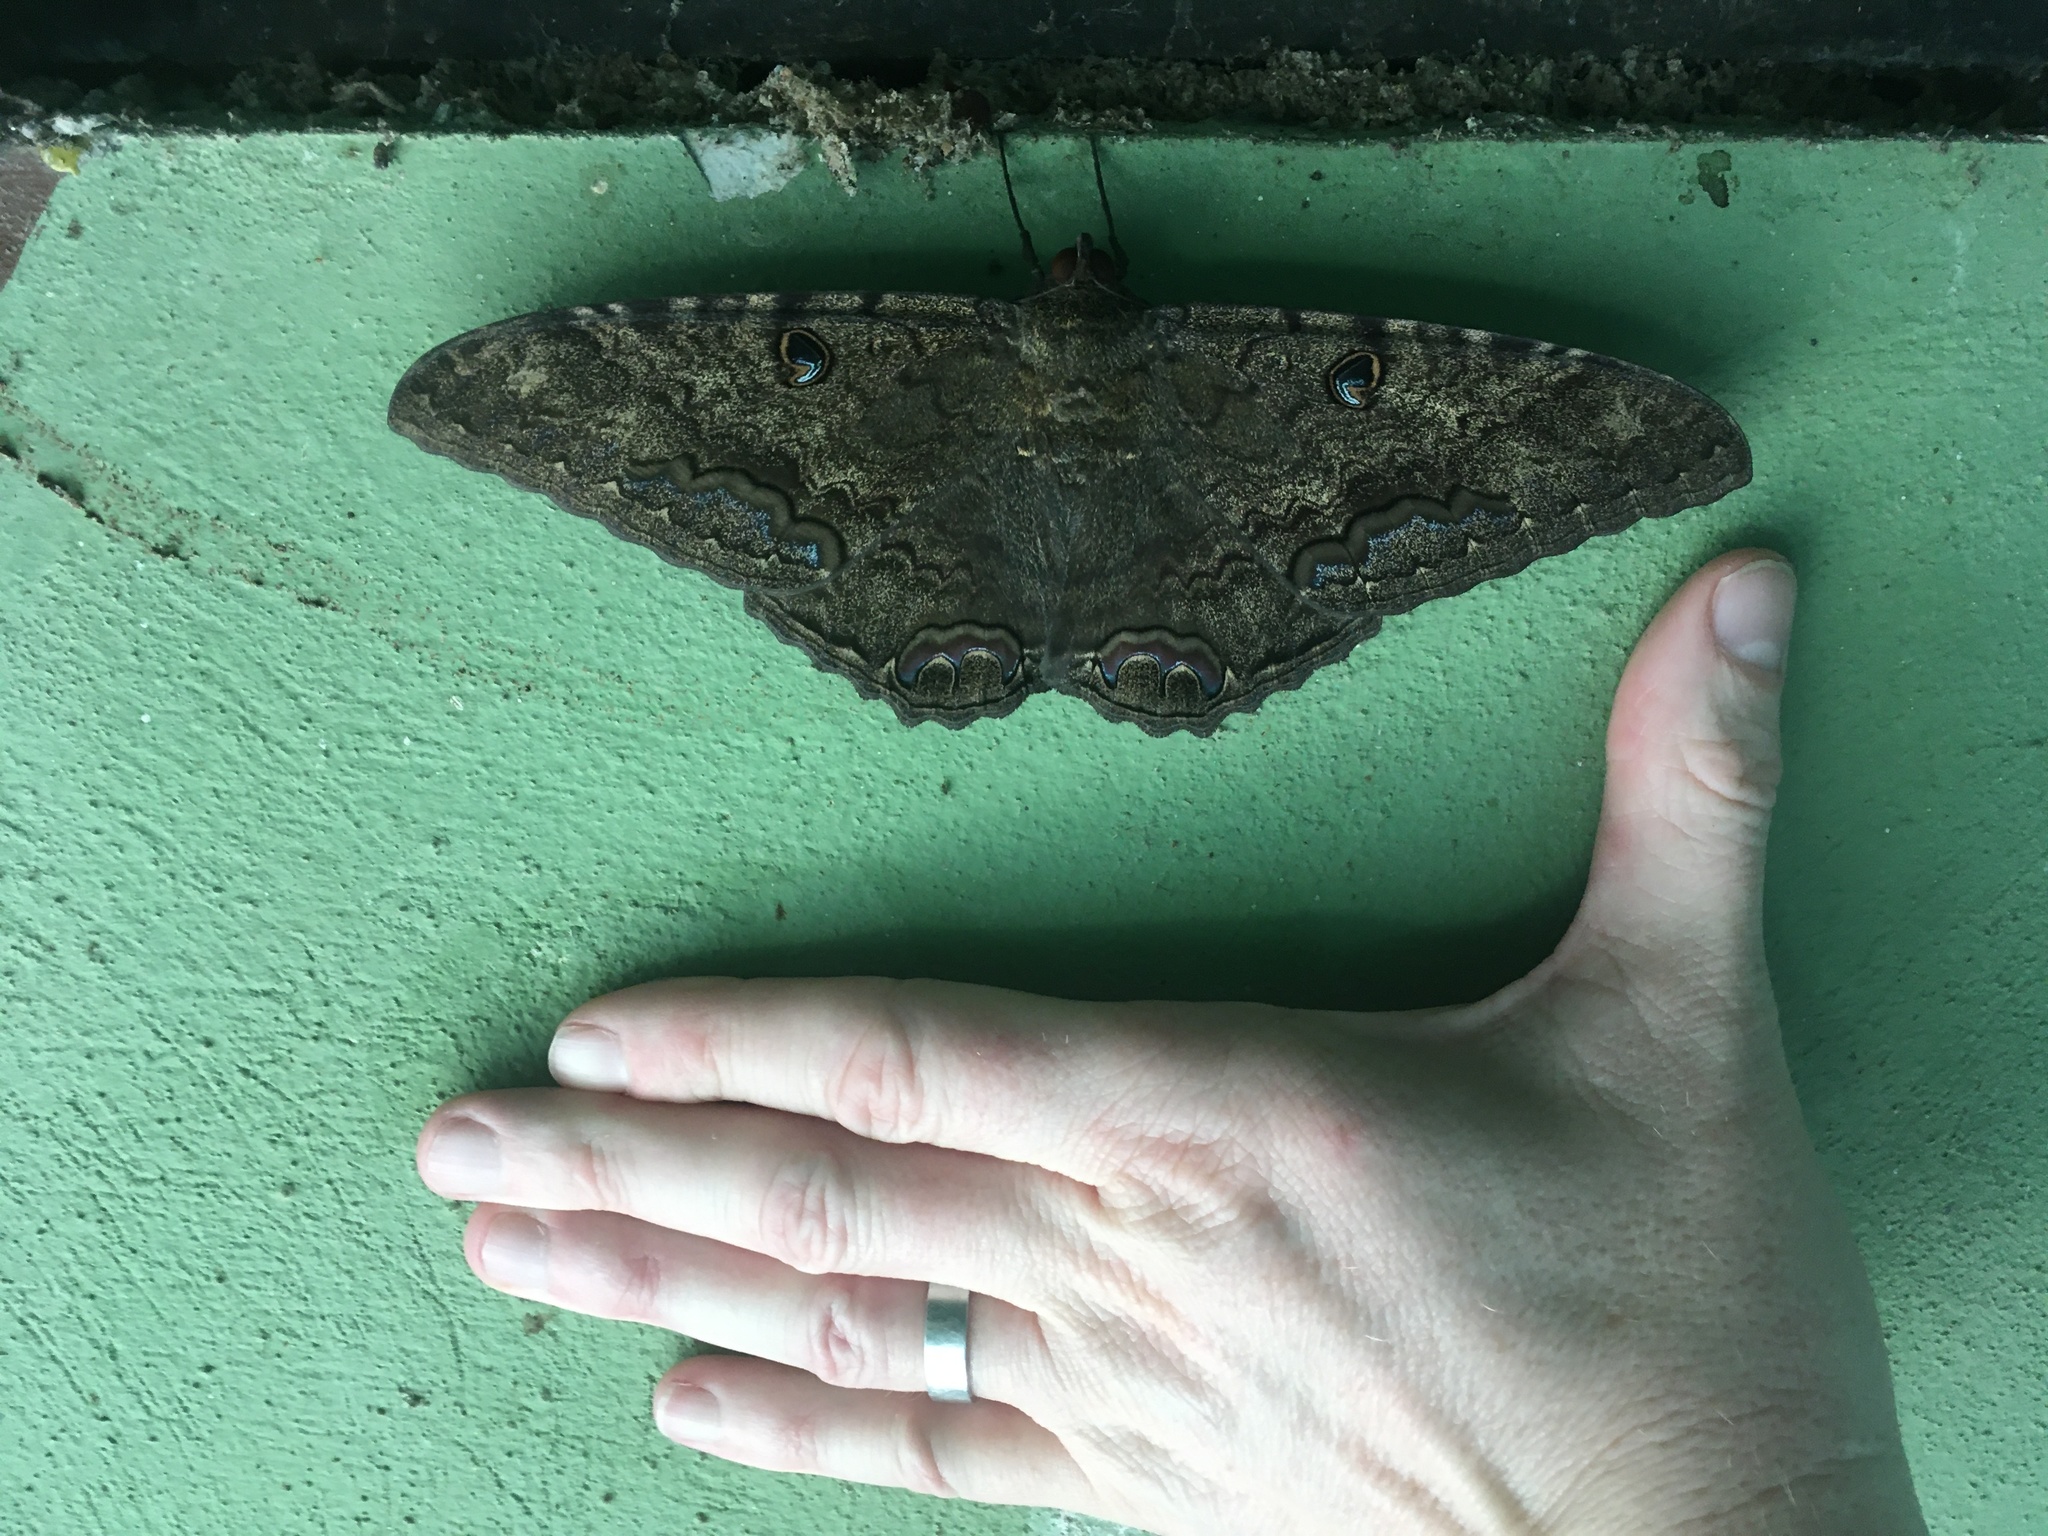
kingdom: Animalia
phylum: Arthropoda
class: Insecta
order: Lepidoptera
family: Erebidae
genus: Ascalapha
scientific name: Ascalapha odorata
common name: Black witch
